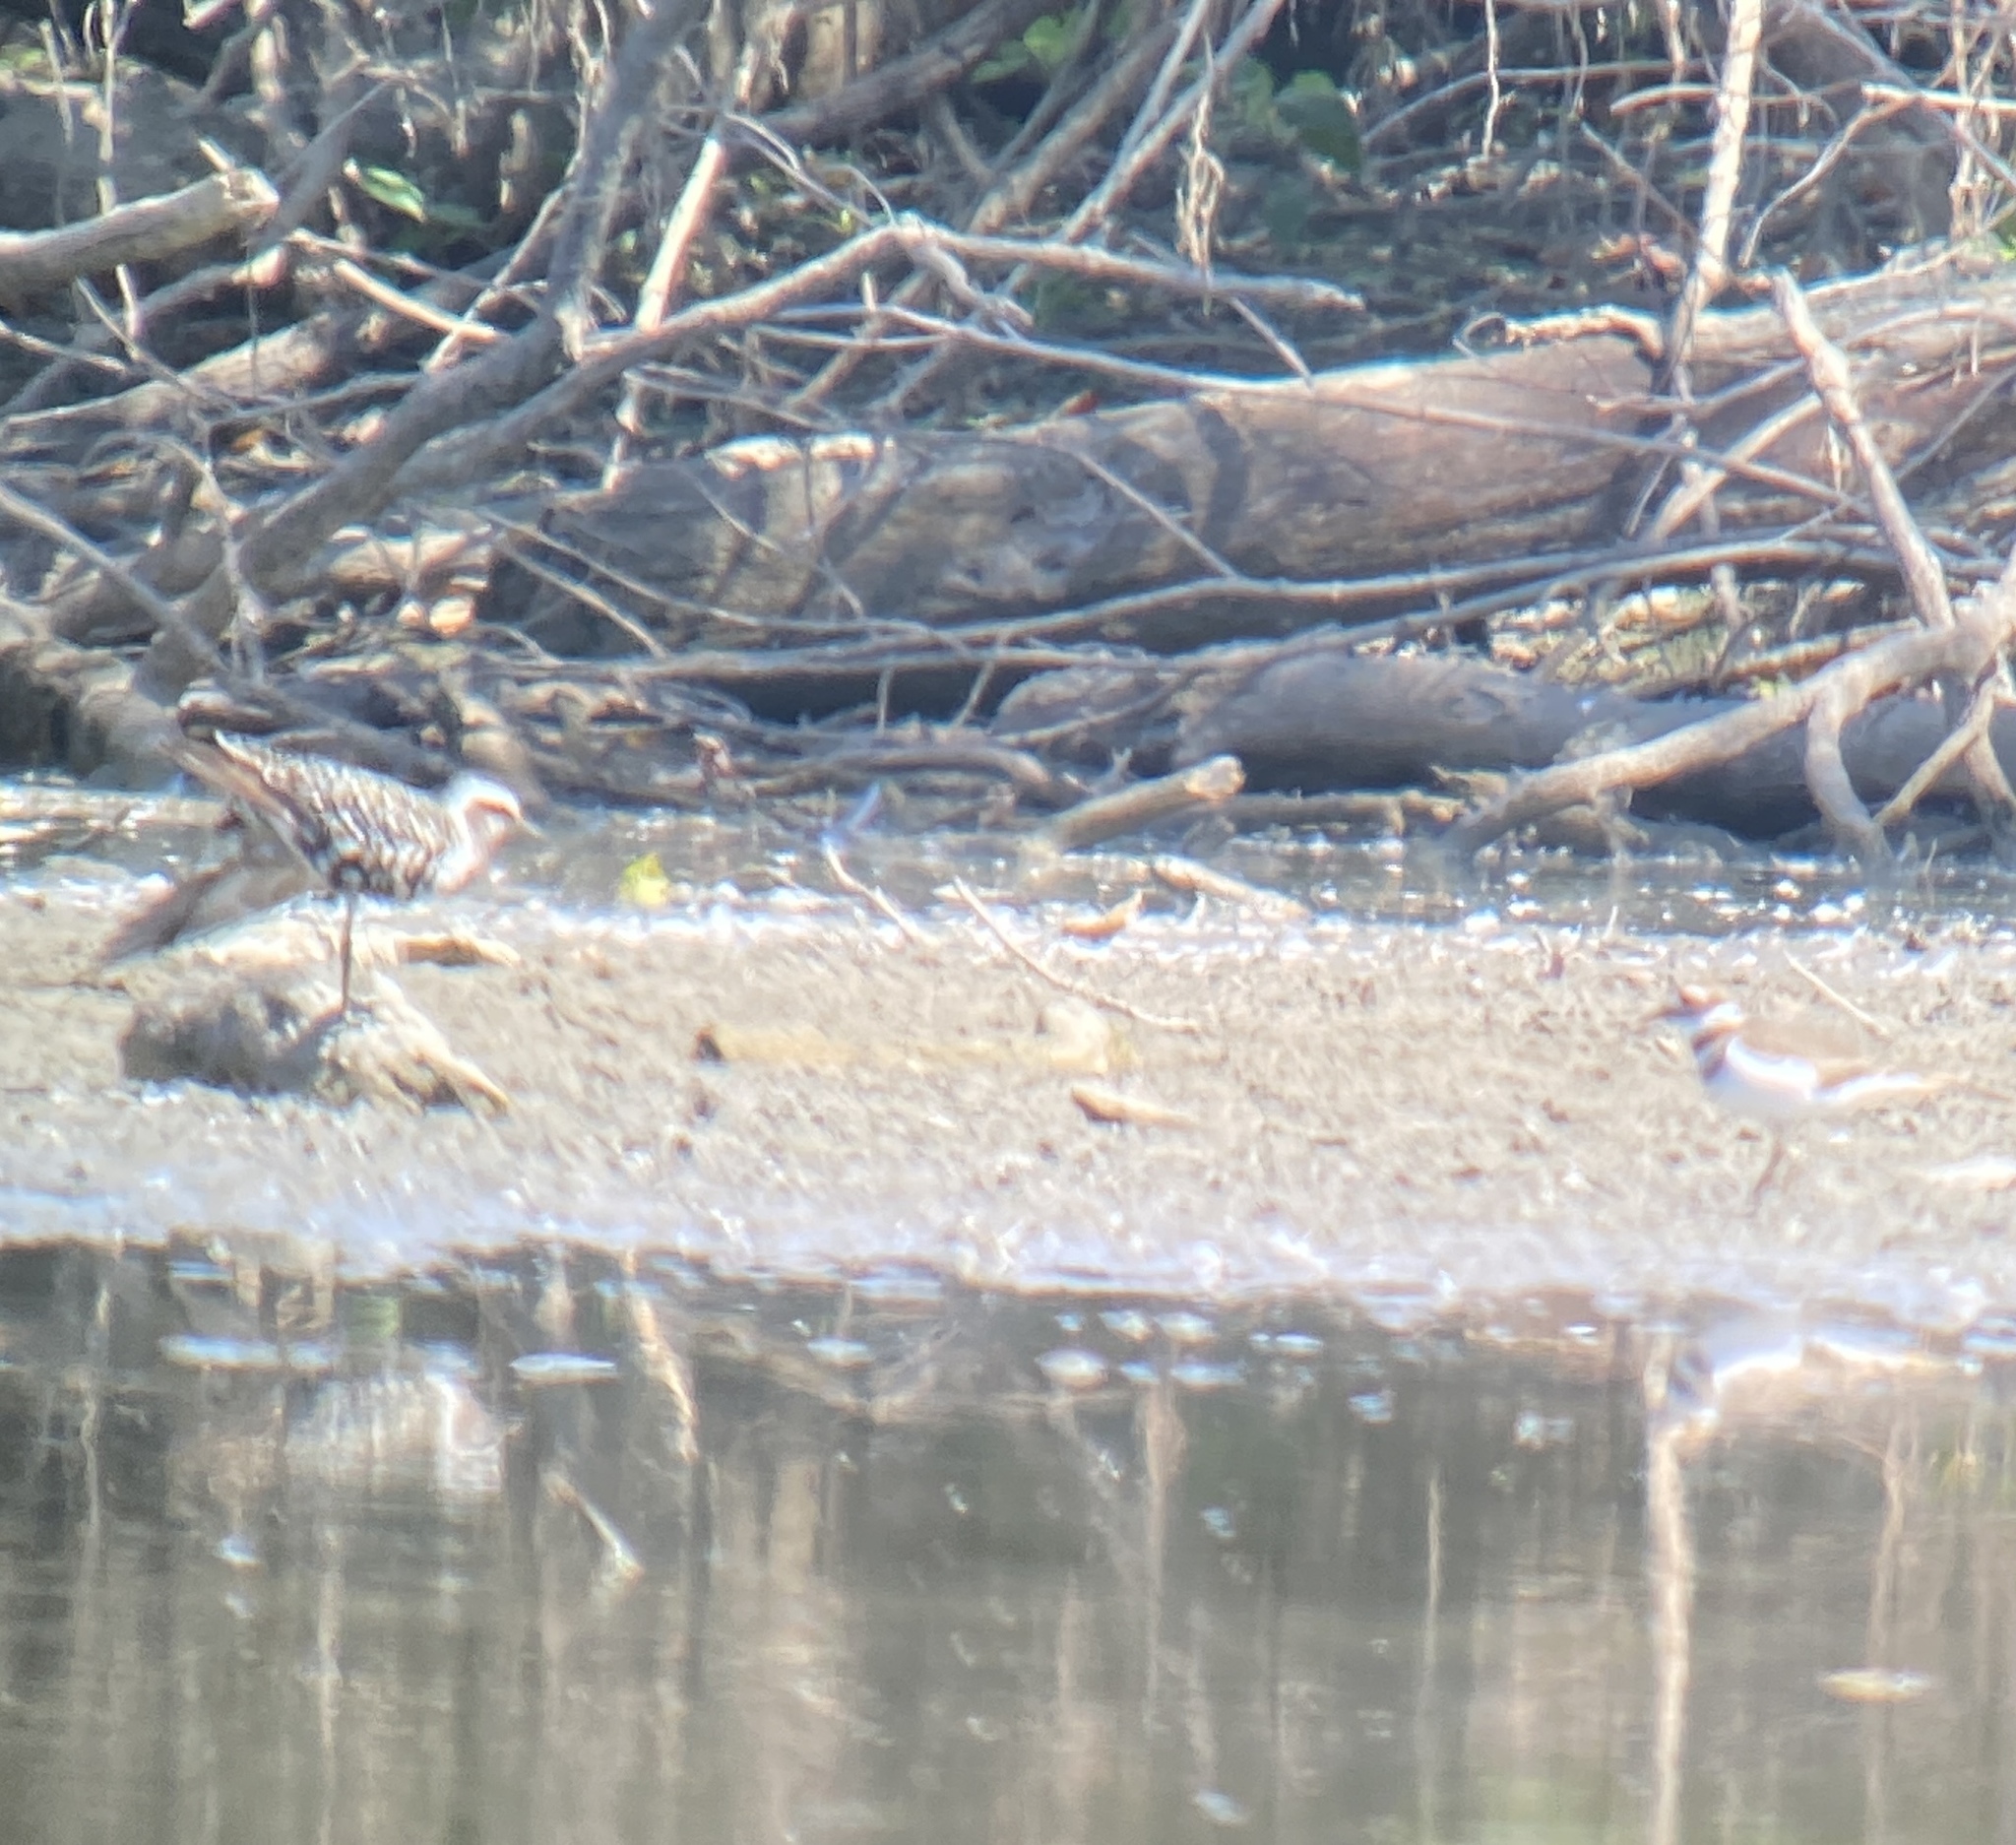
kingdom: Animalia
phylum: Chordata
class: Aves
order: Charadriiformes
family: Charadriidae
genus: Pluvialis
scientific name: Pluvialis dominica
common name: American golden plover
